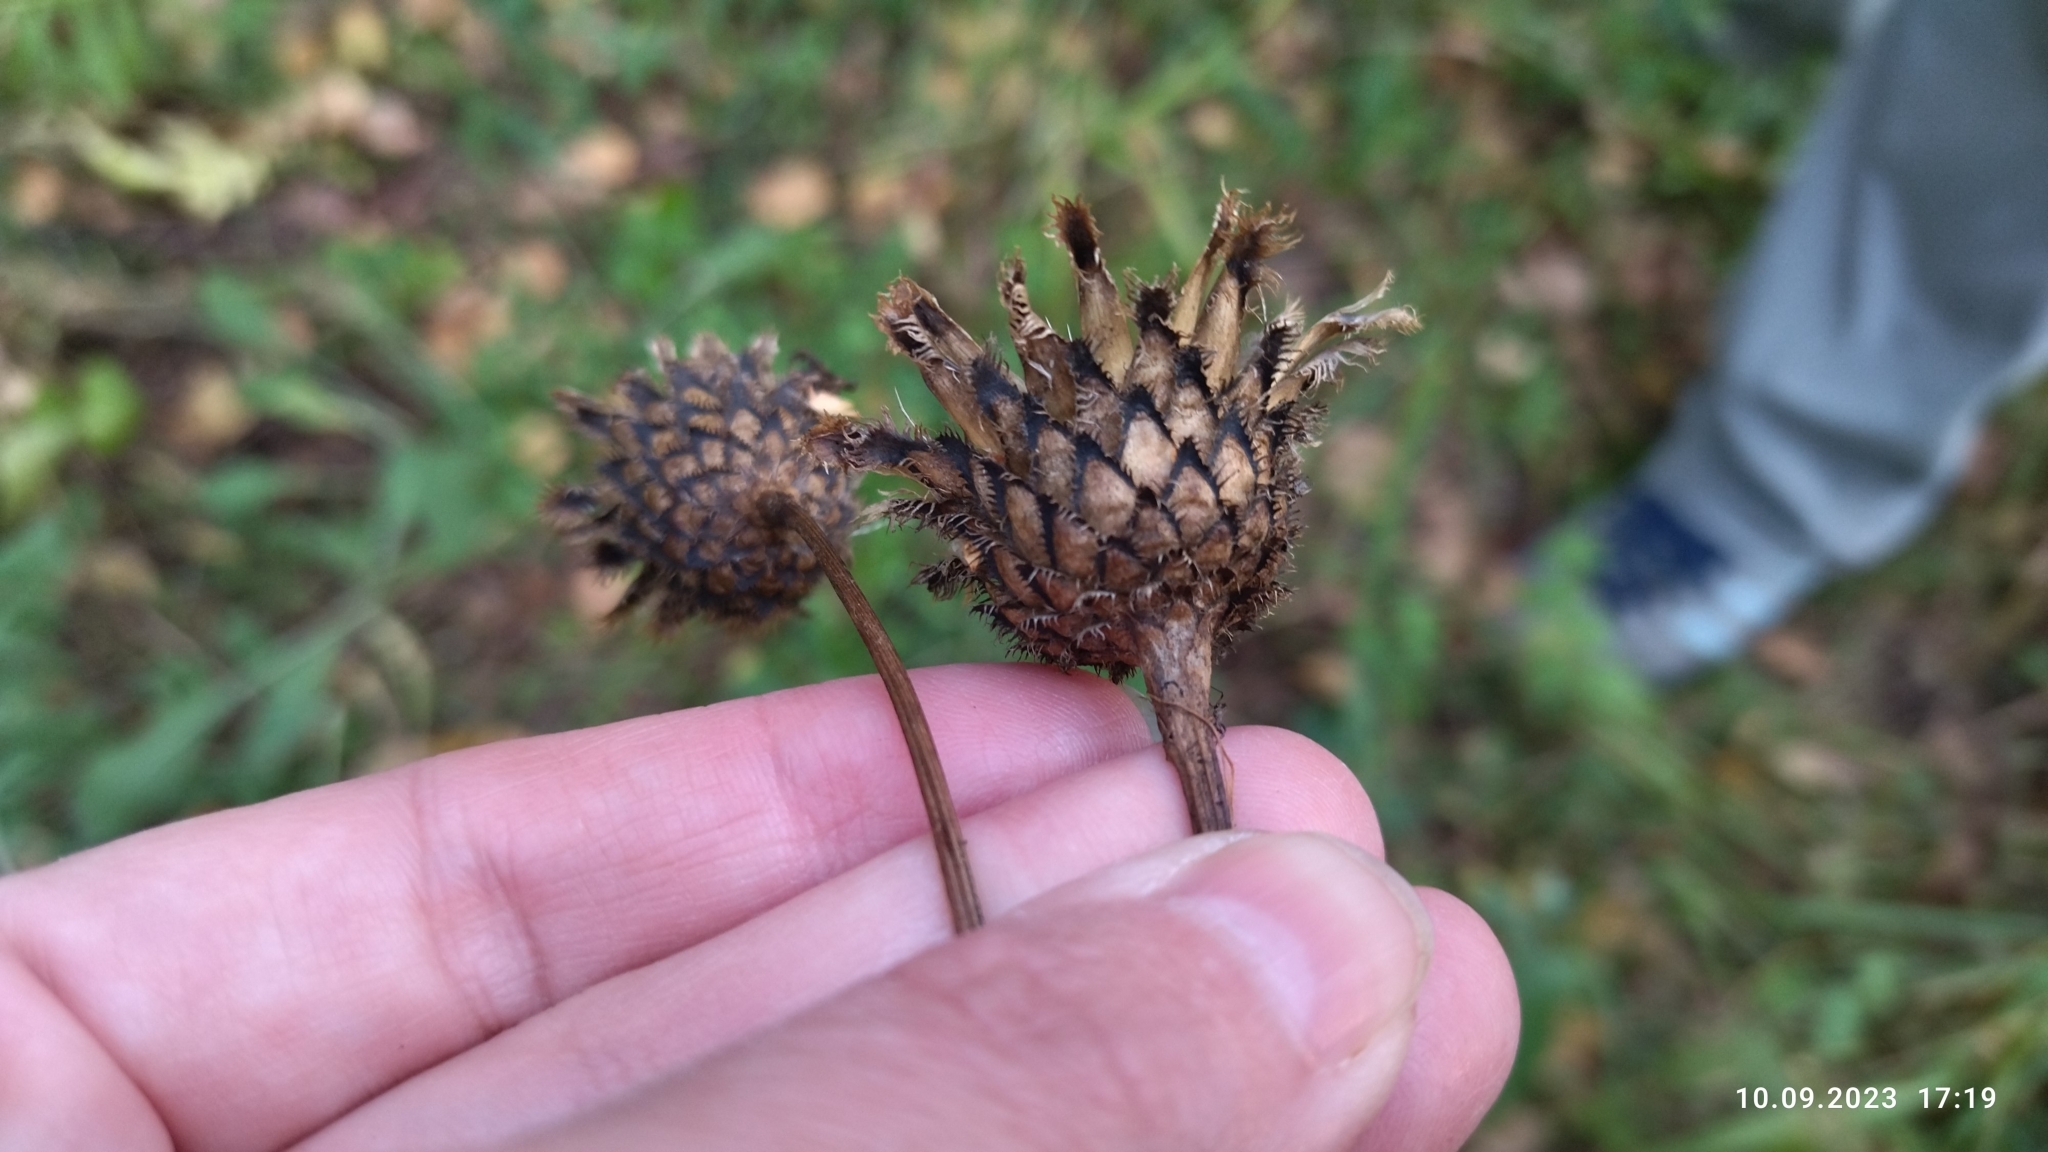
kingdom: Plantae
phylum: Tracheophyta
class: Magnoliopsida
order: Asterales
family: Asteraceae
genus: Centaurea
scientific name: Centaurea scabiosa
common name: Greater knapweed
